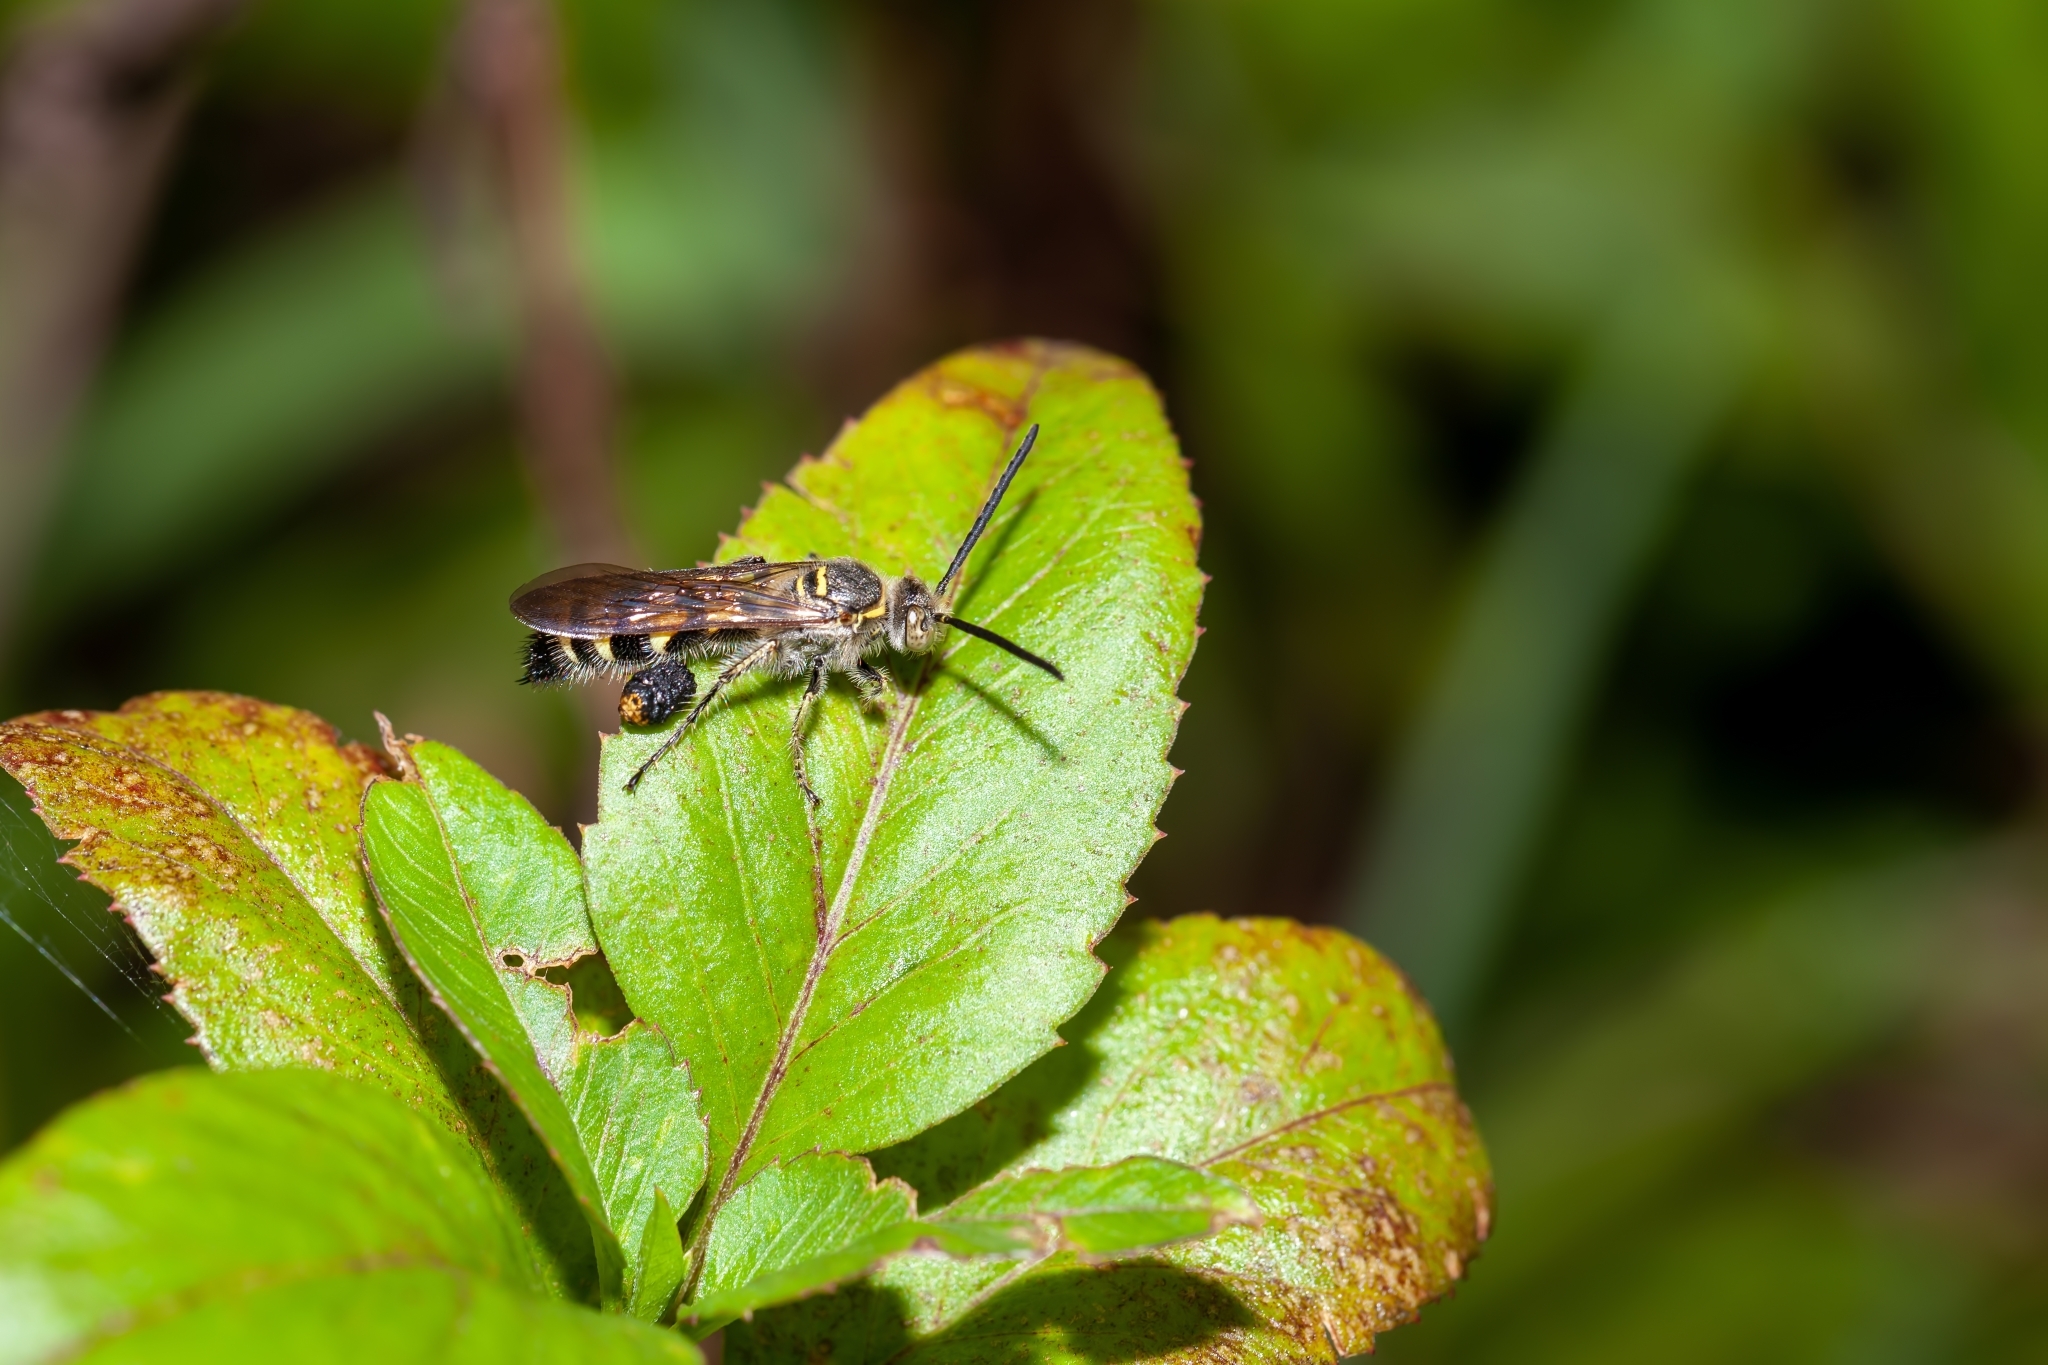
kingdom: Animalia
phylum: Arthropoda
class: Insecta
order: Hymenoptera
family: Scoliidae
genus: Dielis
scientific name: Dielis
